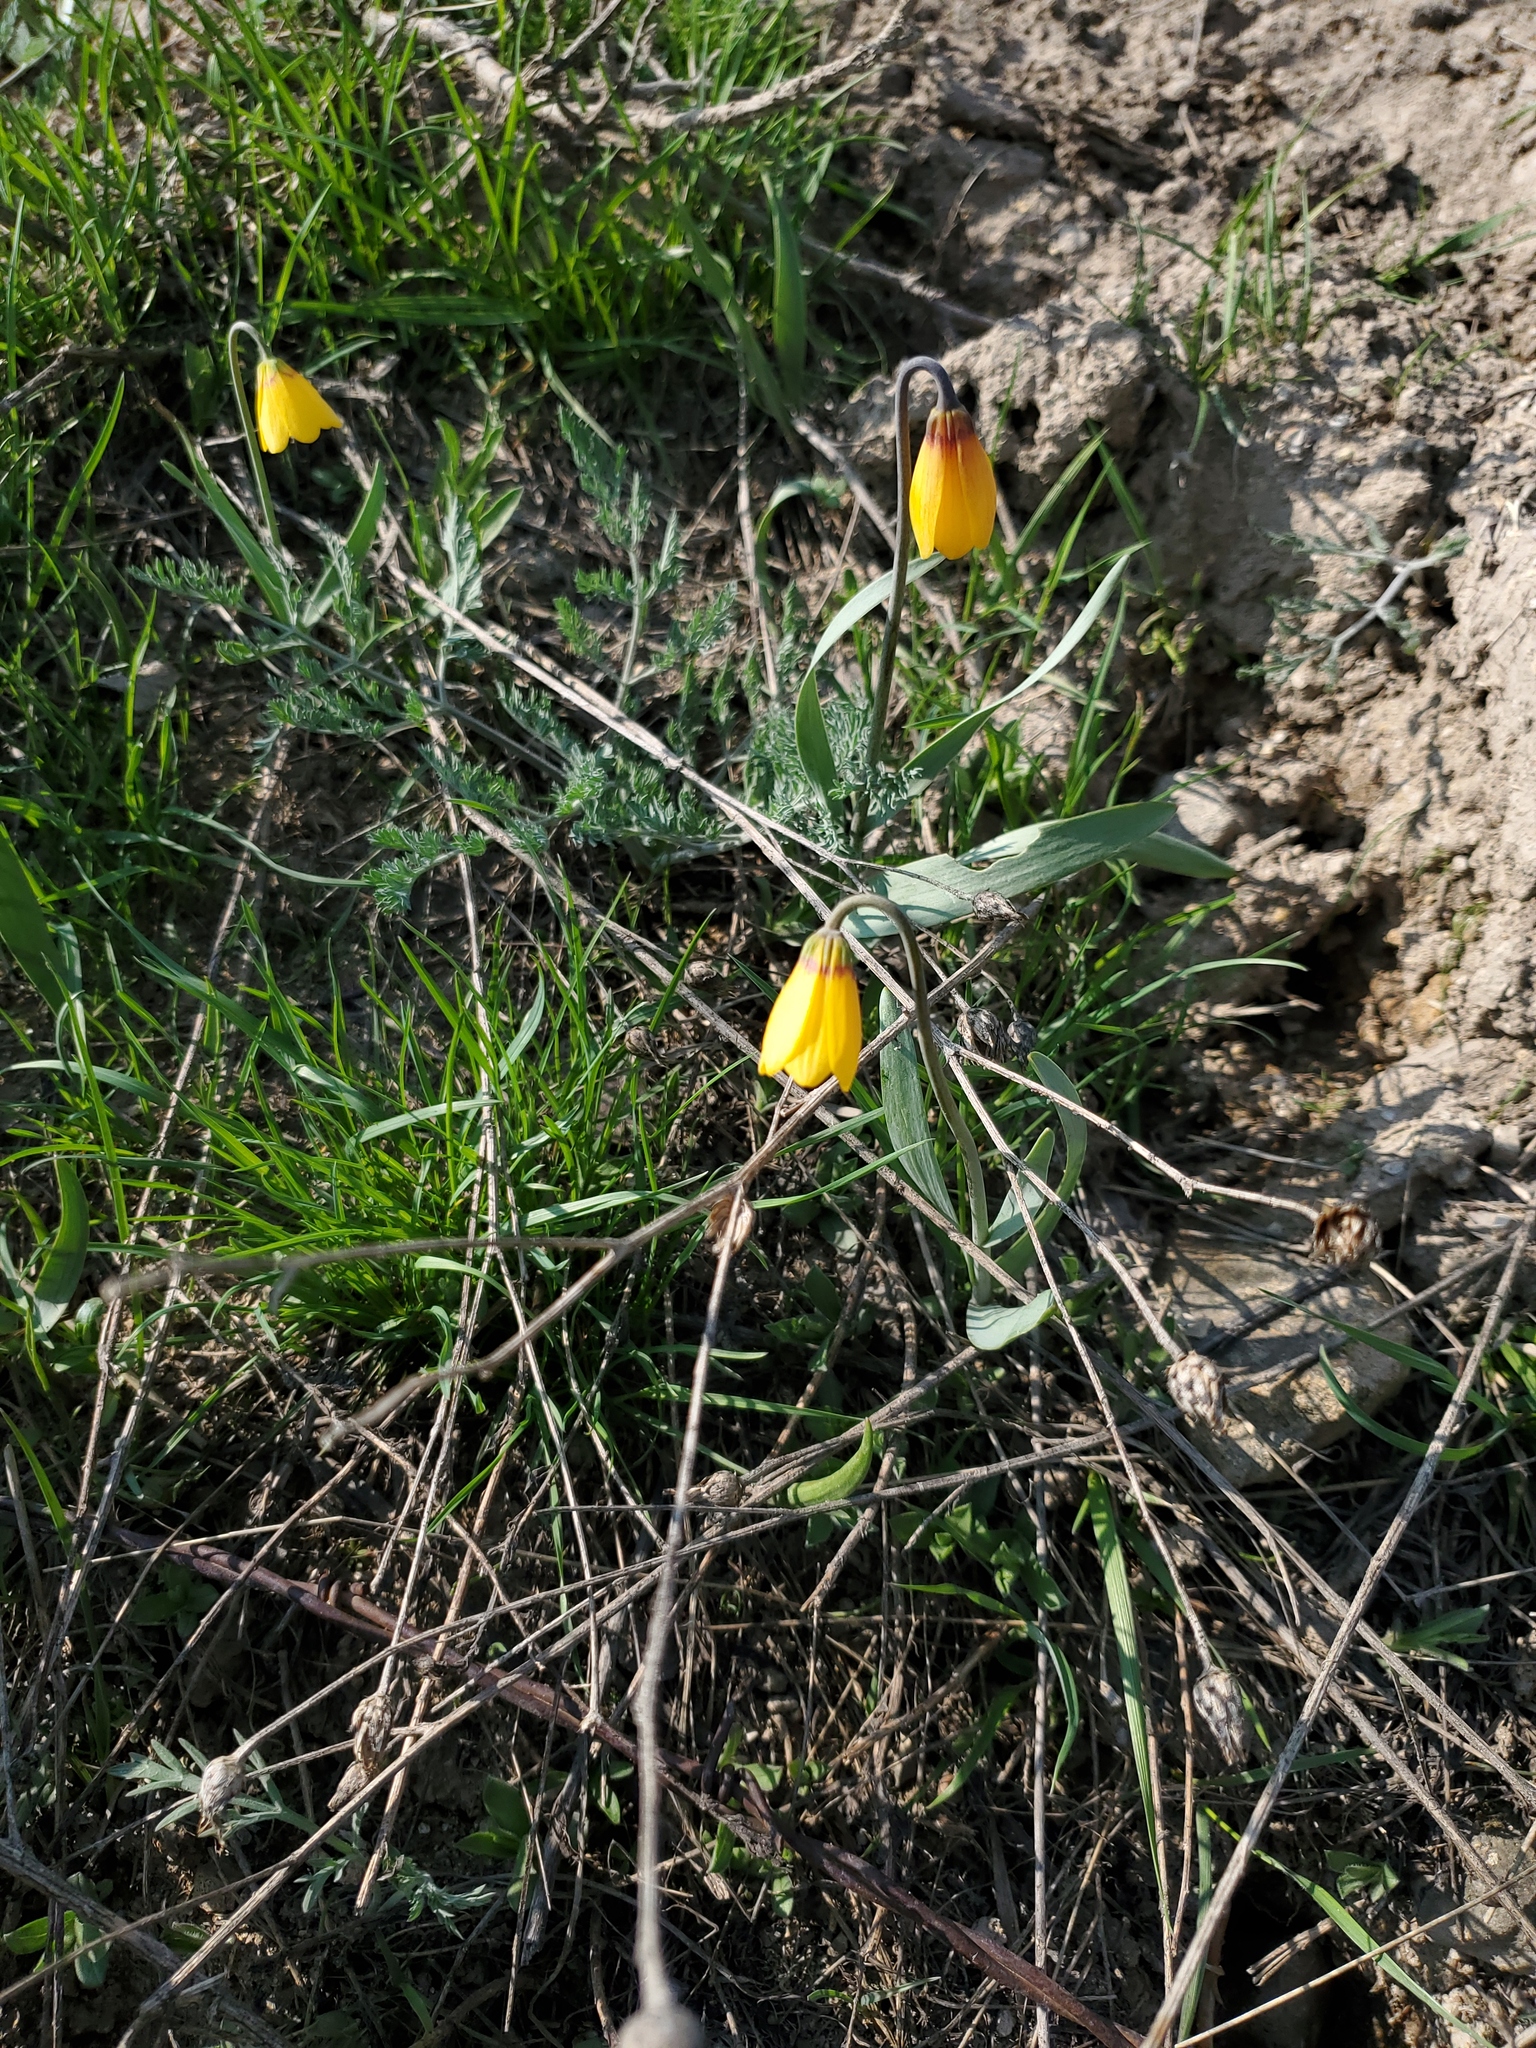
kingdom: Plantae
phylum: Tracheophyta
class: Liliopsida
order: Liliales
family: Liliaceae
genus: Fritillaria
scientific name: Fritillaria pudica
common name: Yellow fritillary
